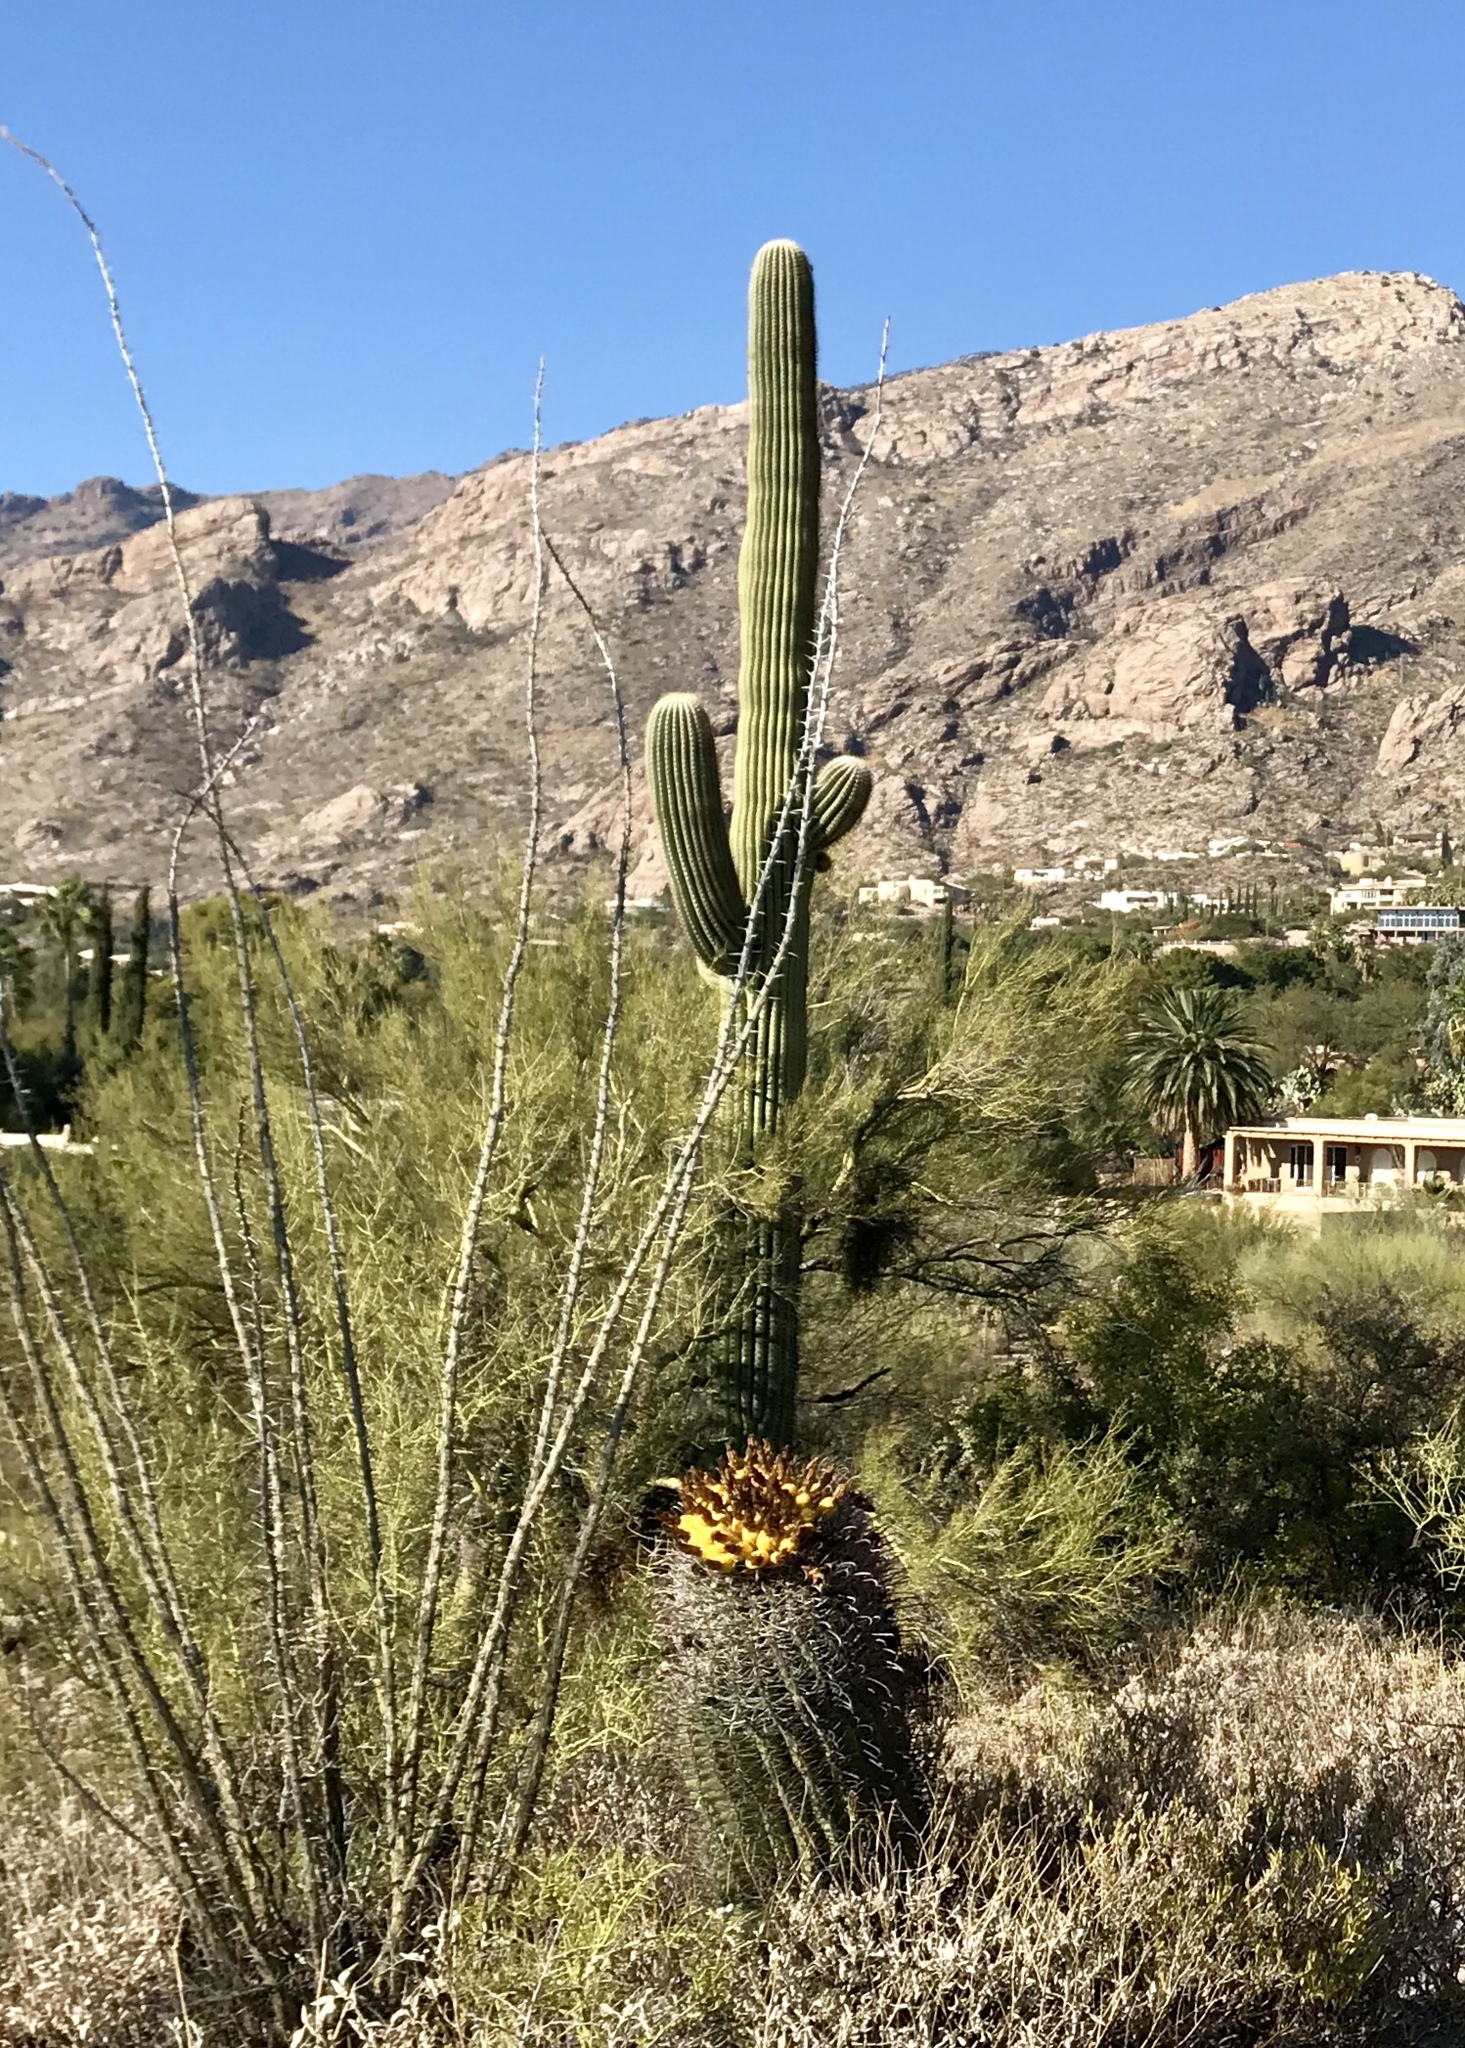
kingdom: Plantae
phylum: Tracheophyta
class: Magnoliopsida
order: Caryophyllales
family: Cactaceae
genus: Carnegiea
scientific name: Carnegiea gigantea
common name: Saguaro
